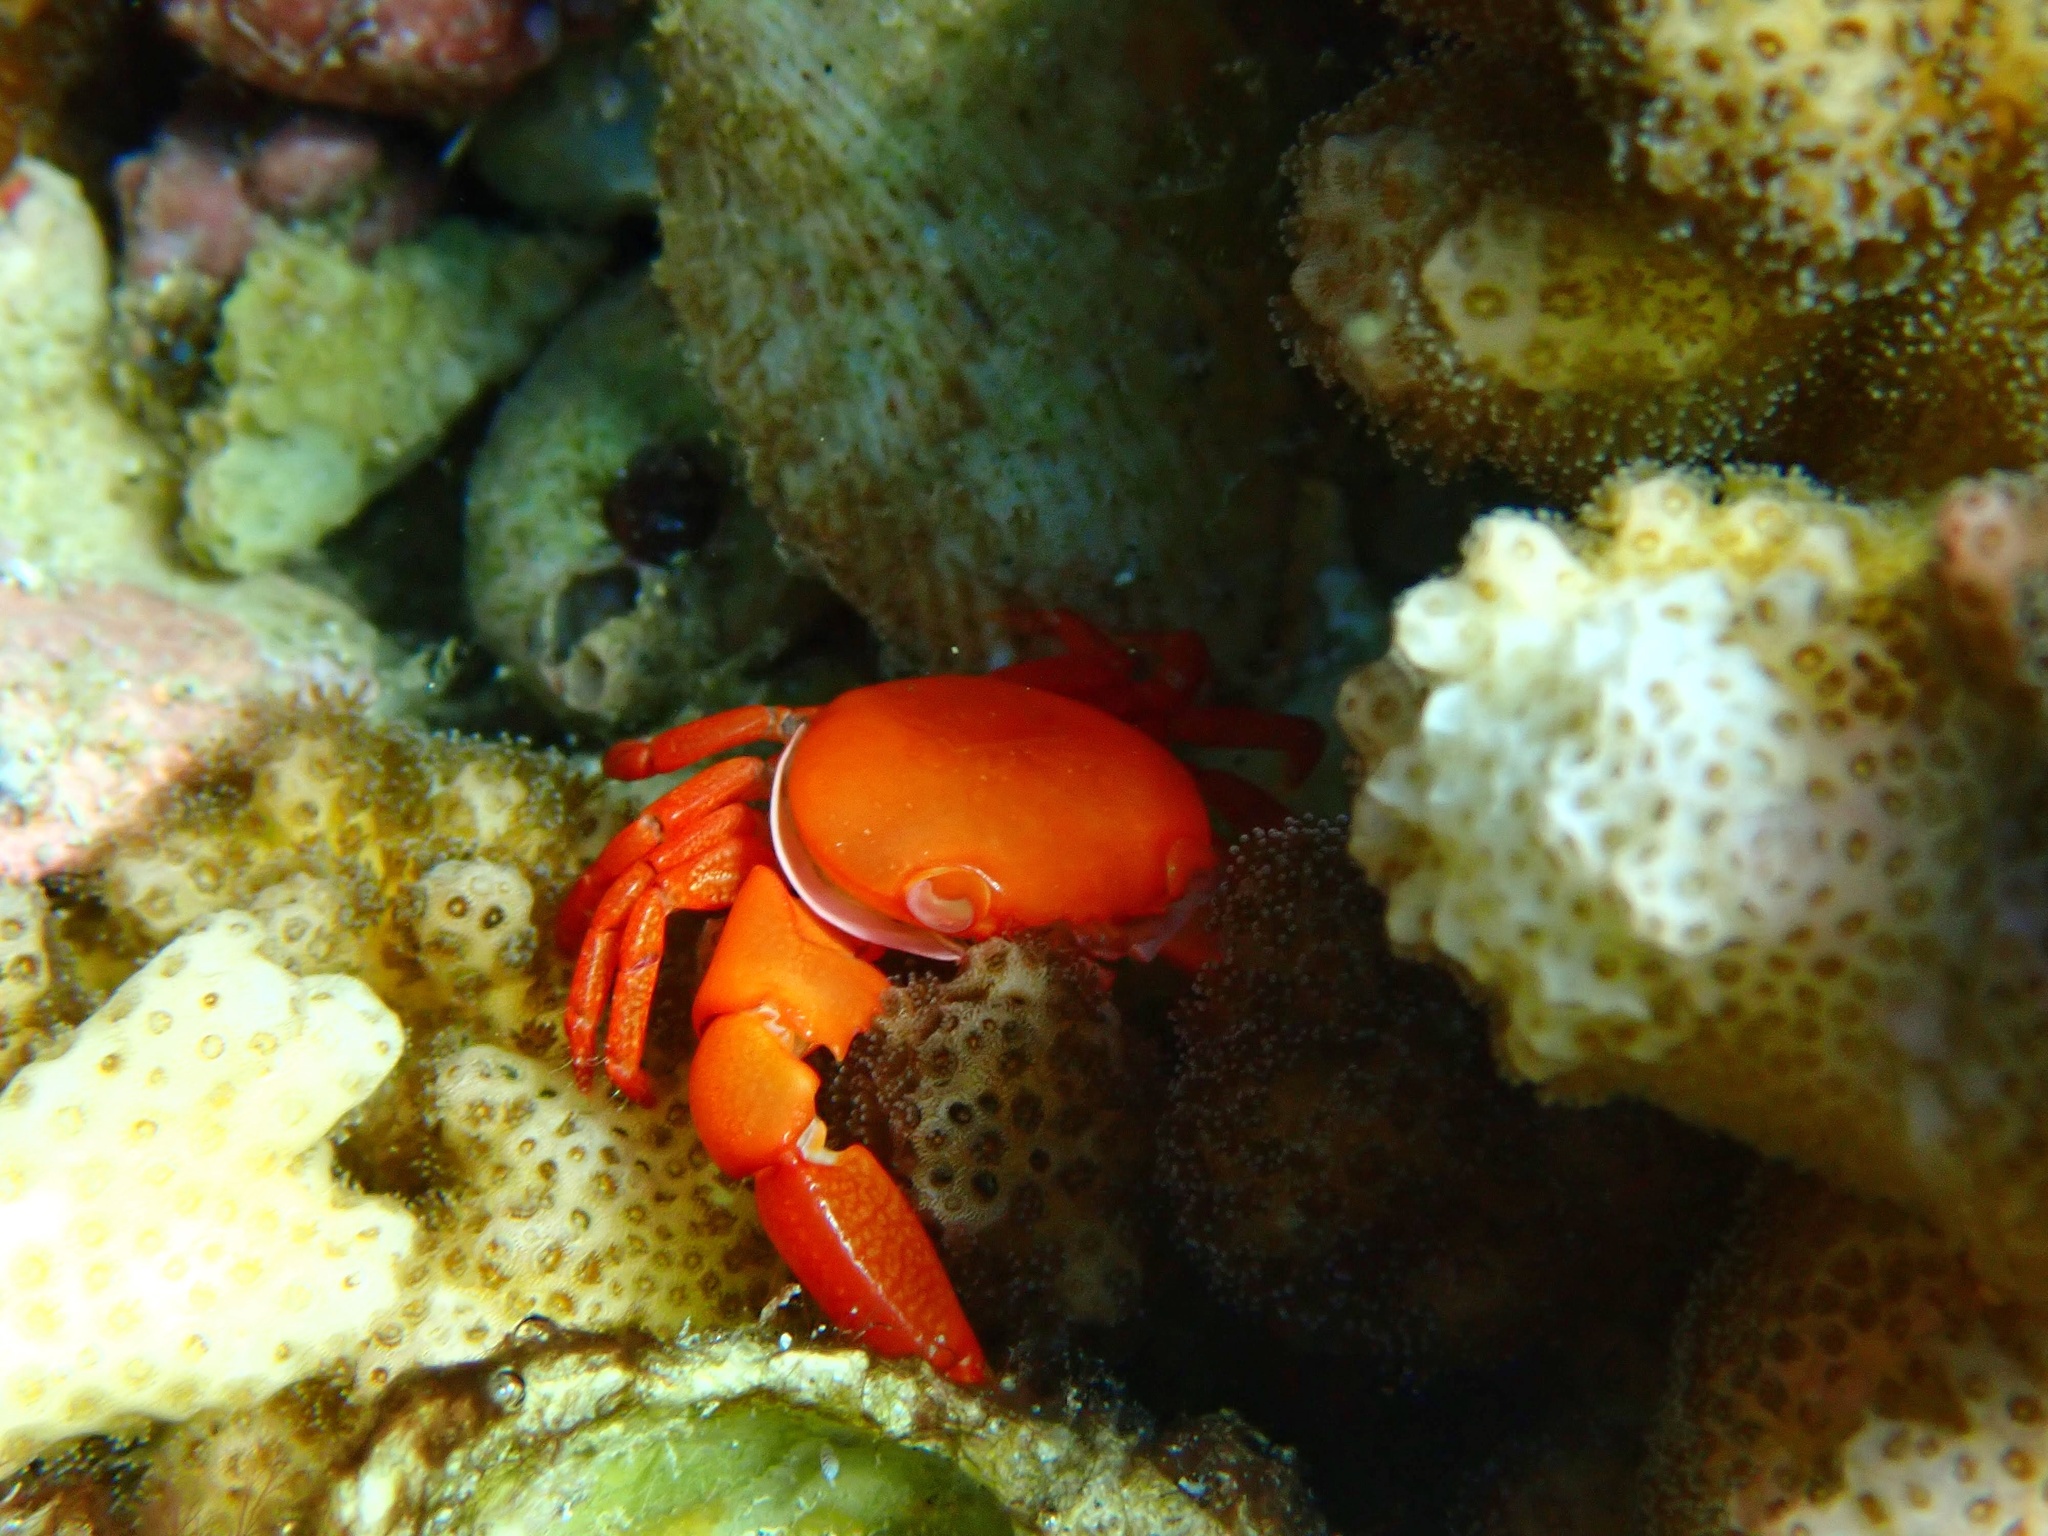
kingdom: Animalia
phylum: Arthropoda
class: Malacostraca
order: Decapoda
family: Trapeziidae
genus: Trapezia
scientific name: Trapezia bidentata
